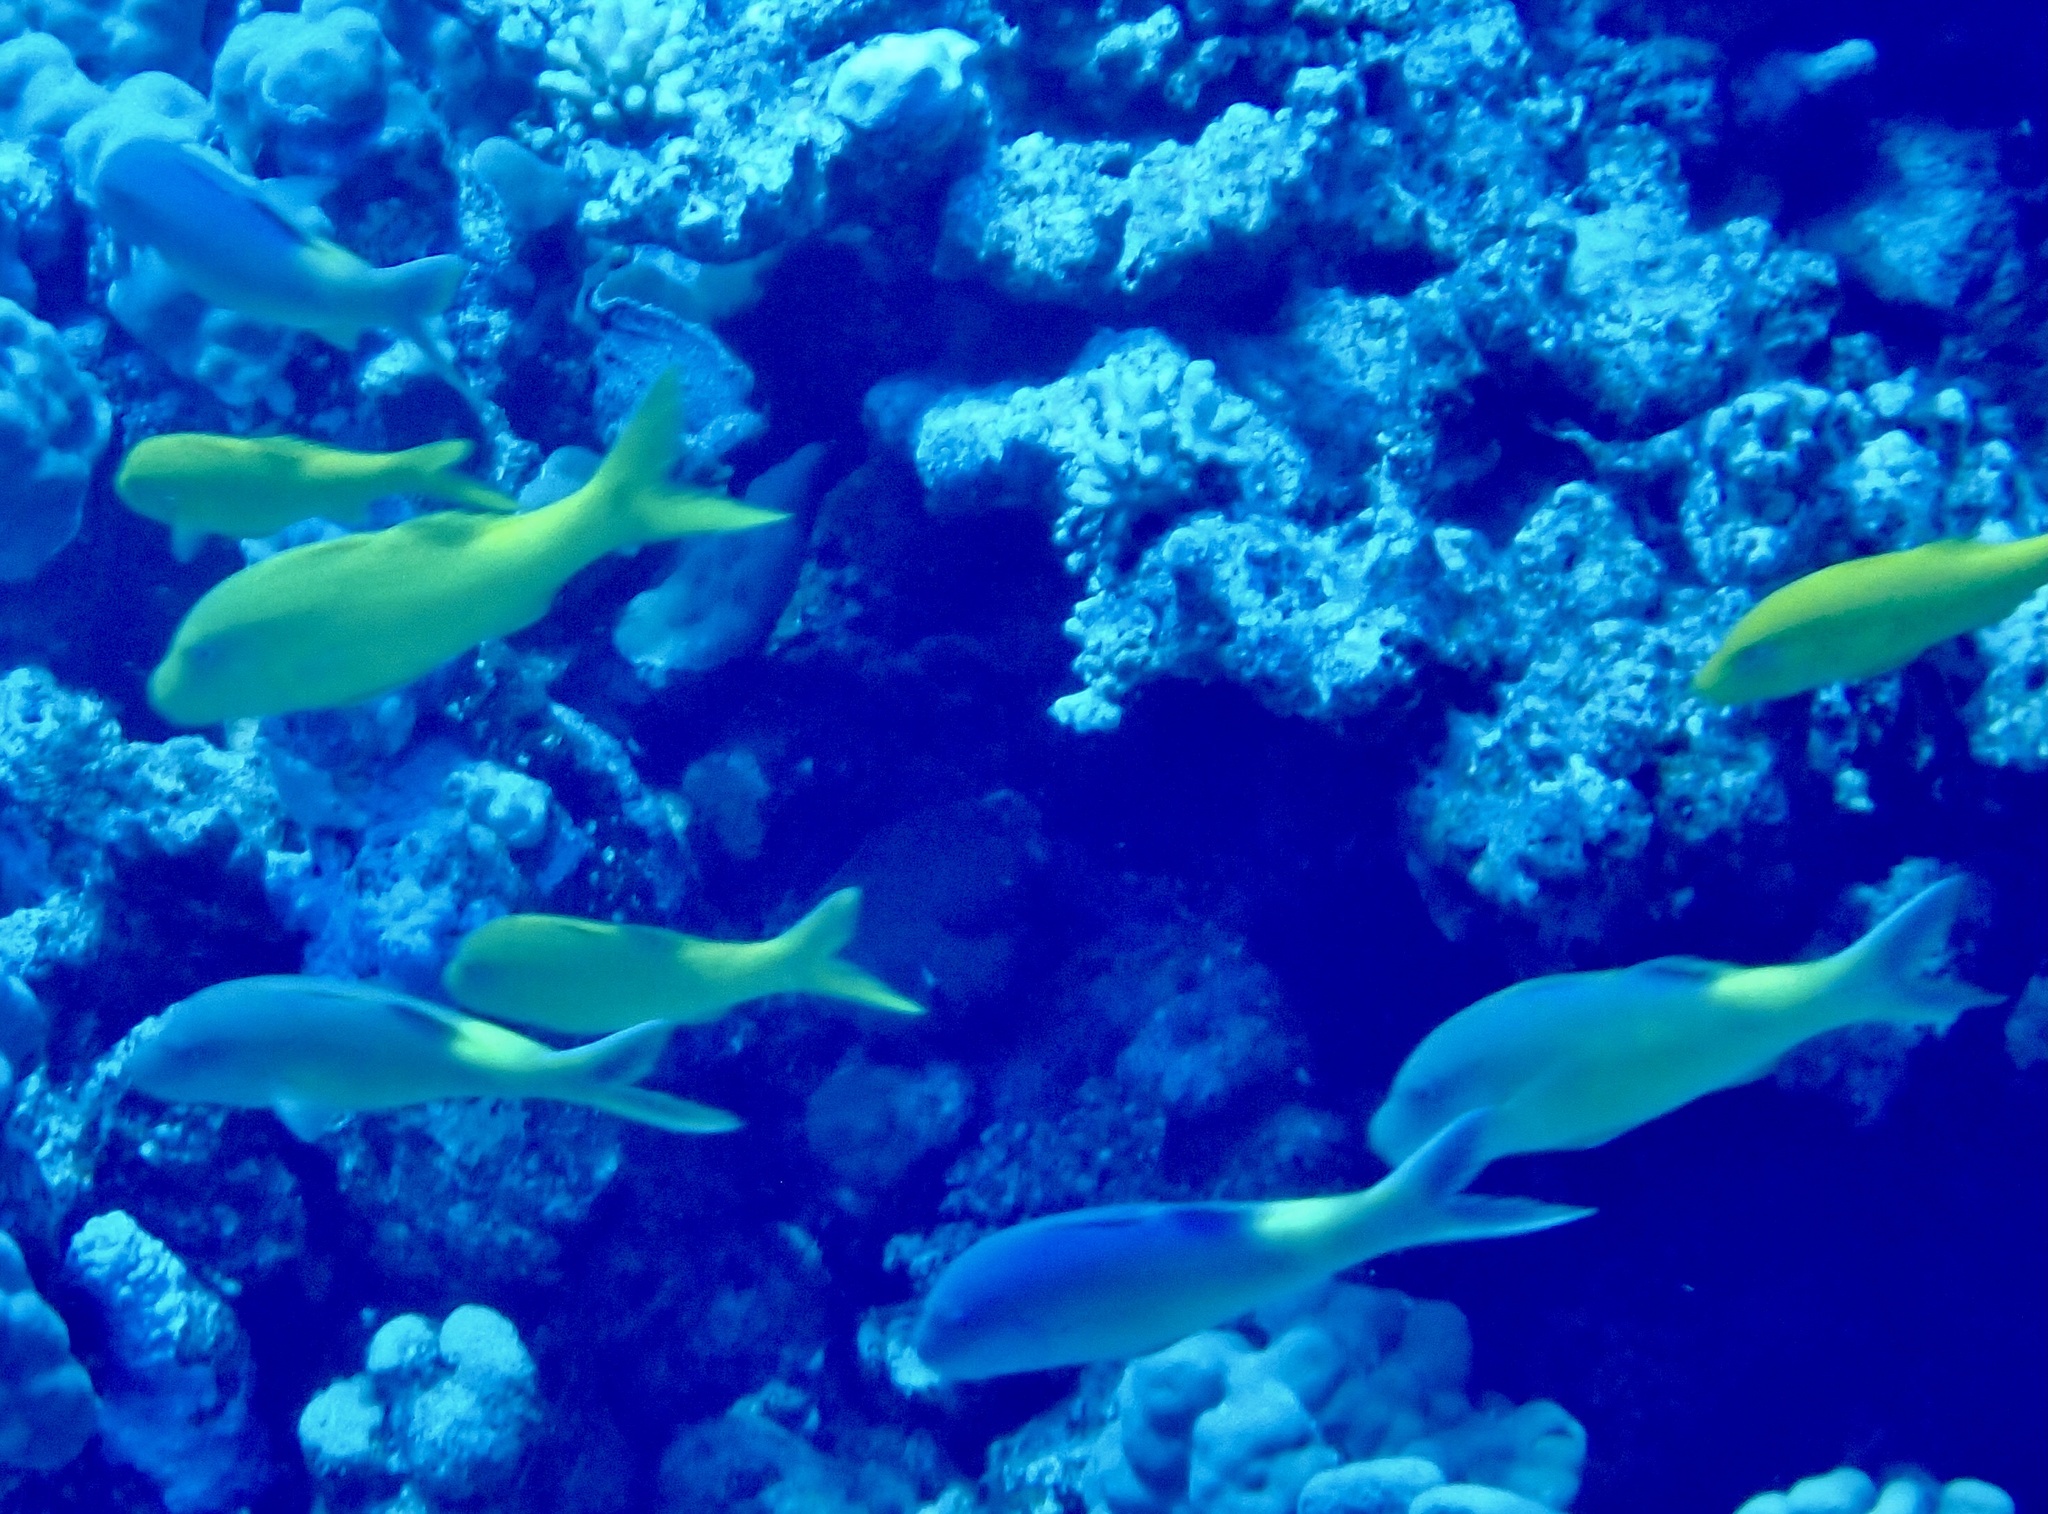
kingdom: Animalia
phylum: Chordata
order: Perciformes
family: Mullidae
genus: Parupeneus
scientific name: Parupeneus cyclostomus
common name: Goldsaddle goatfish
